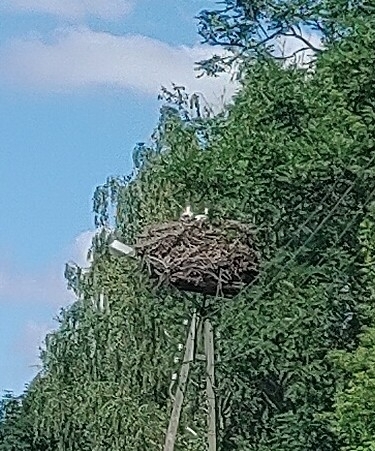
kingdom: Animalia
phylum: Chordata
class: Aves
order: Ciconiiformes
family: Ciconiidae
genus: Ciconia
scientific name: Ciconia ciconia
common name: White stork
